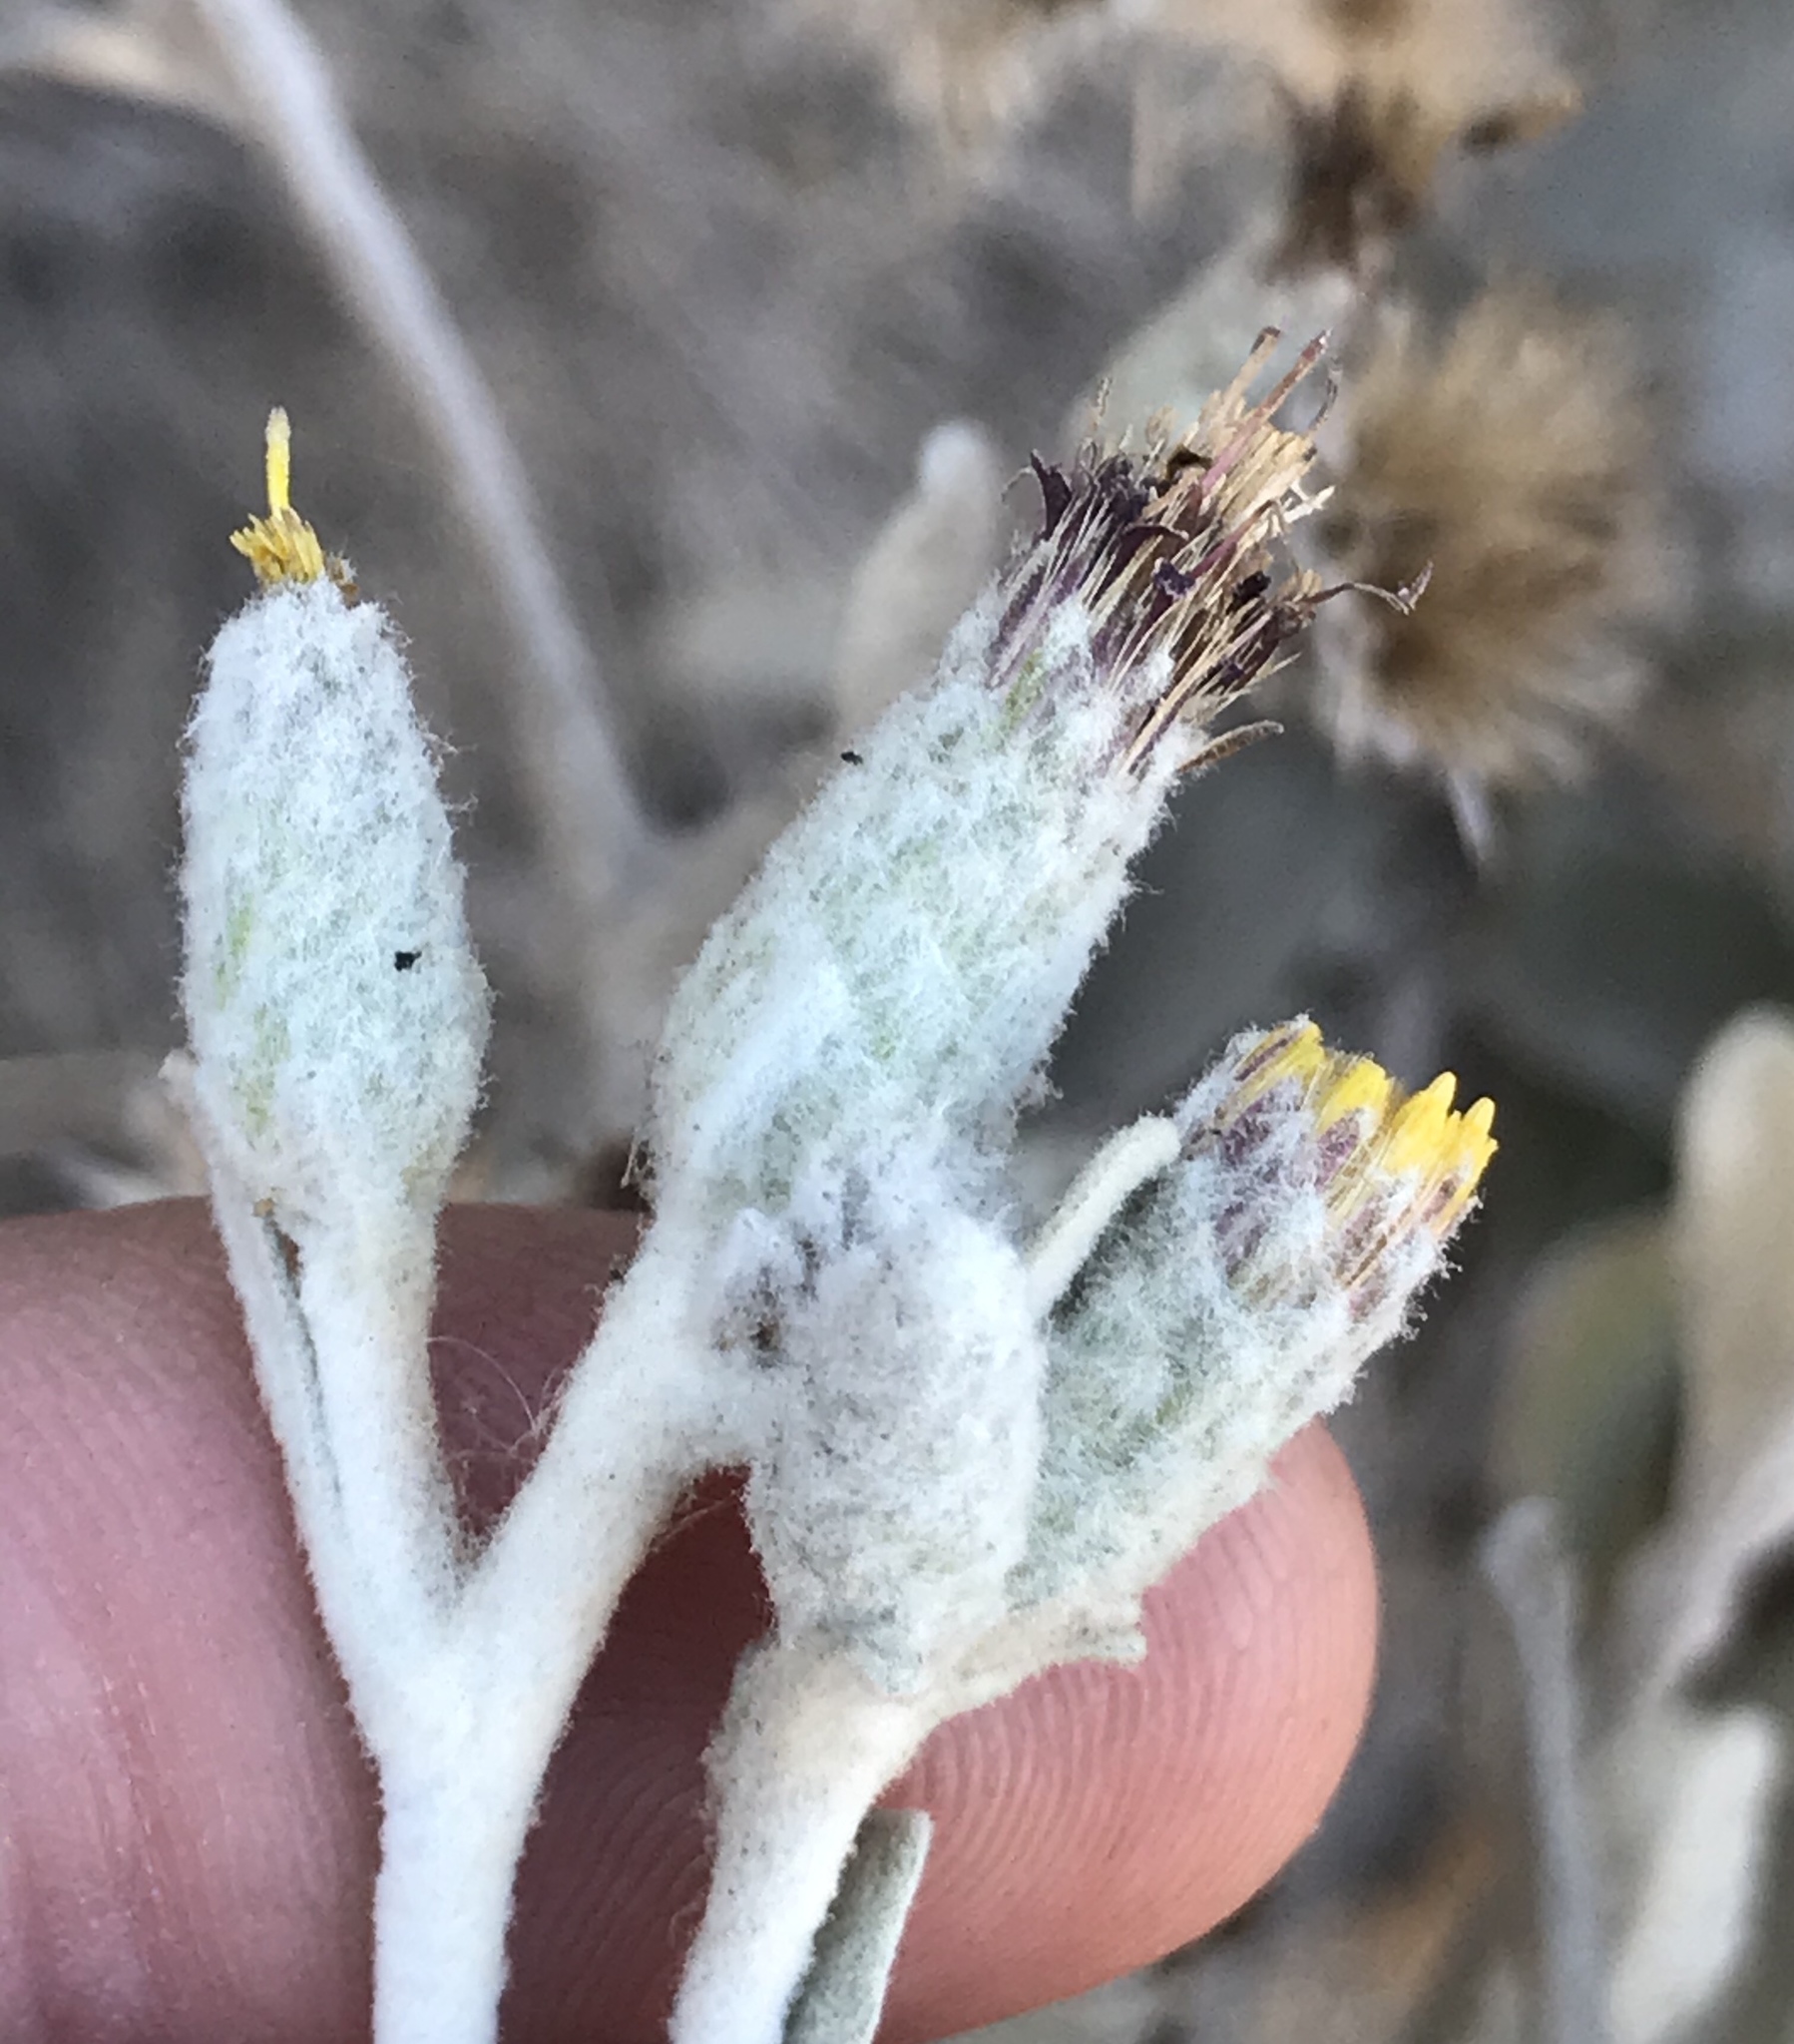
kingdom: Plantae
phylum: Tracheophyta
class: Magnoliopsida
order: Asterales
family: Asteraceae
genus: Hazardia
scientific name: Hazardia detonsa
